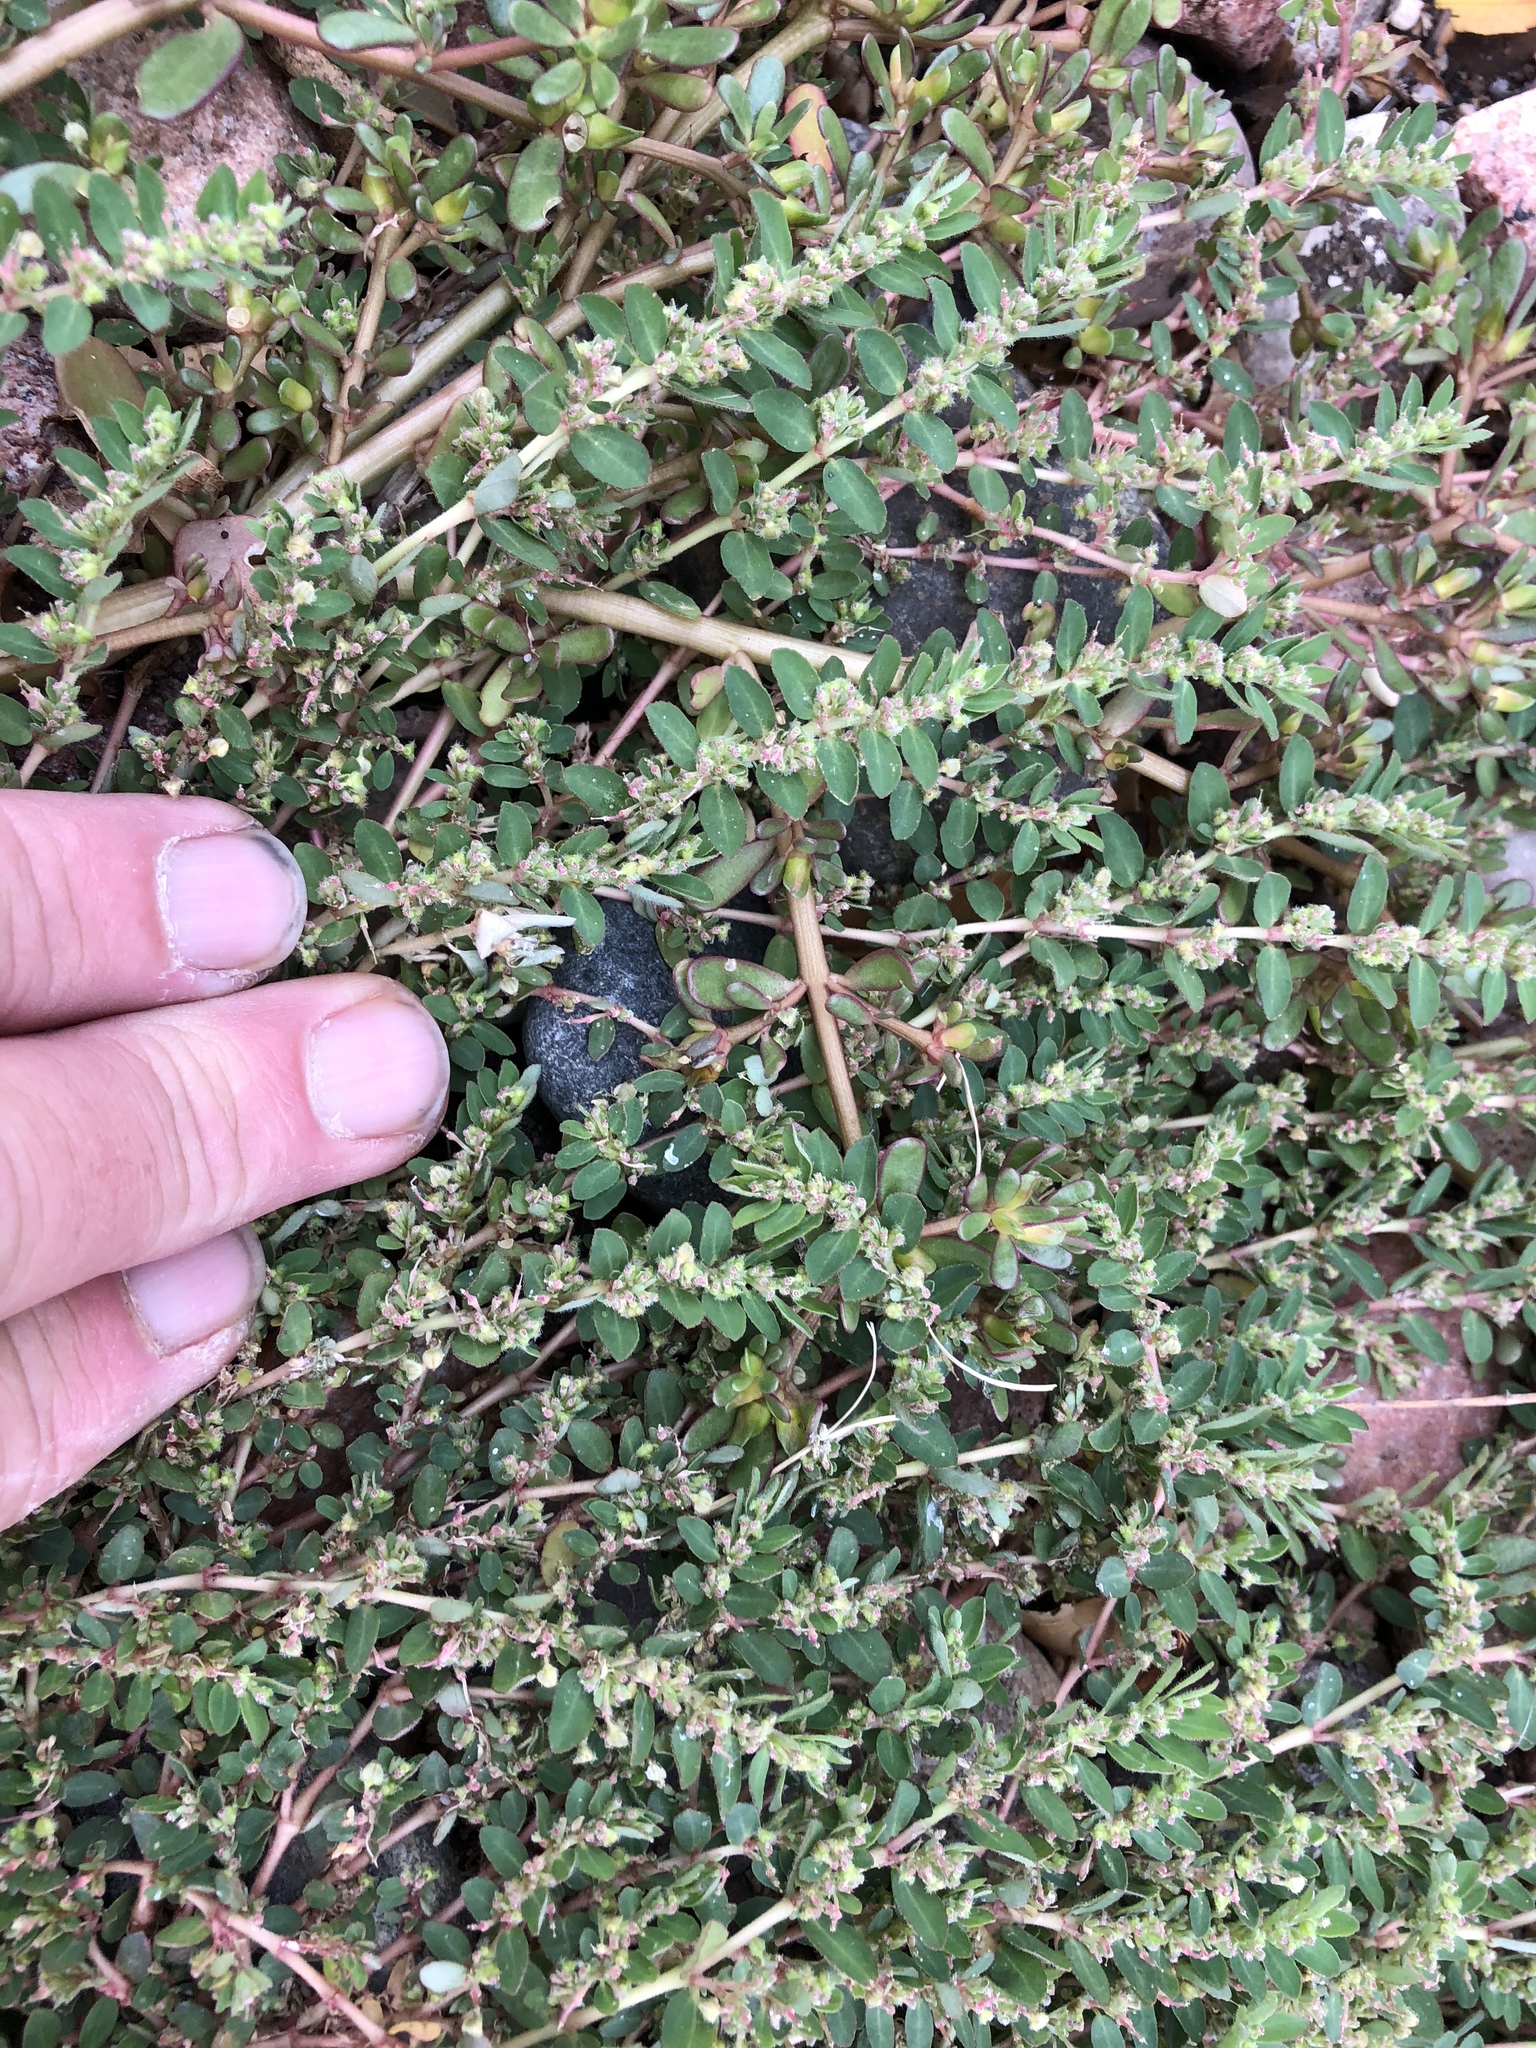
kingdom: Plantae
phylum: Tracheophyta
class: Magnoliopsida
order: Malpighiales
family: Euphorbiaceae
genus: Euphorbia
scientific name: Euphorbia prostrata
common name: Prostrate sandmat
